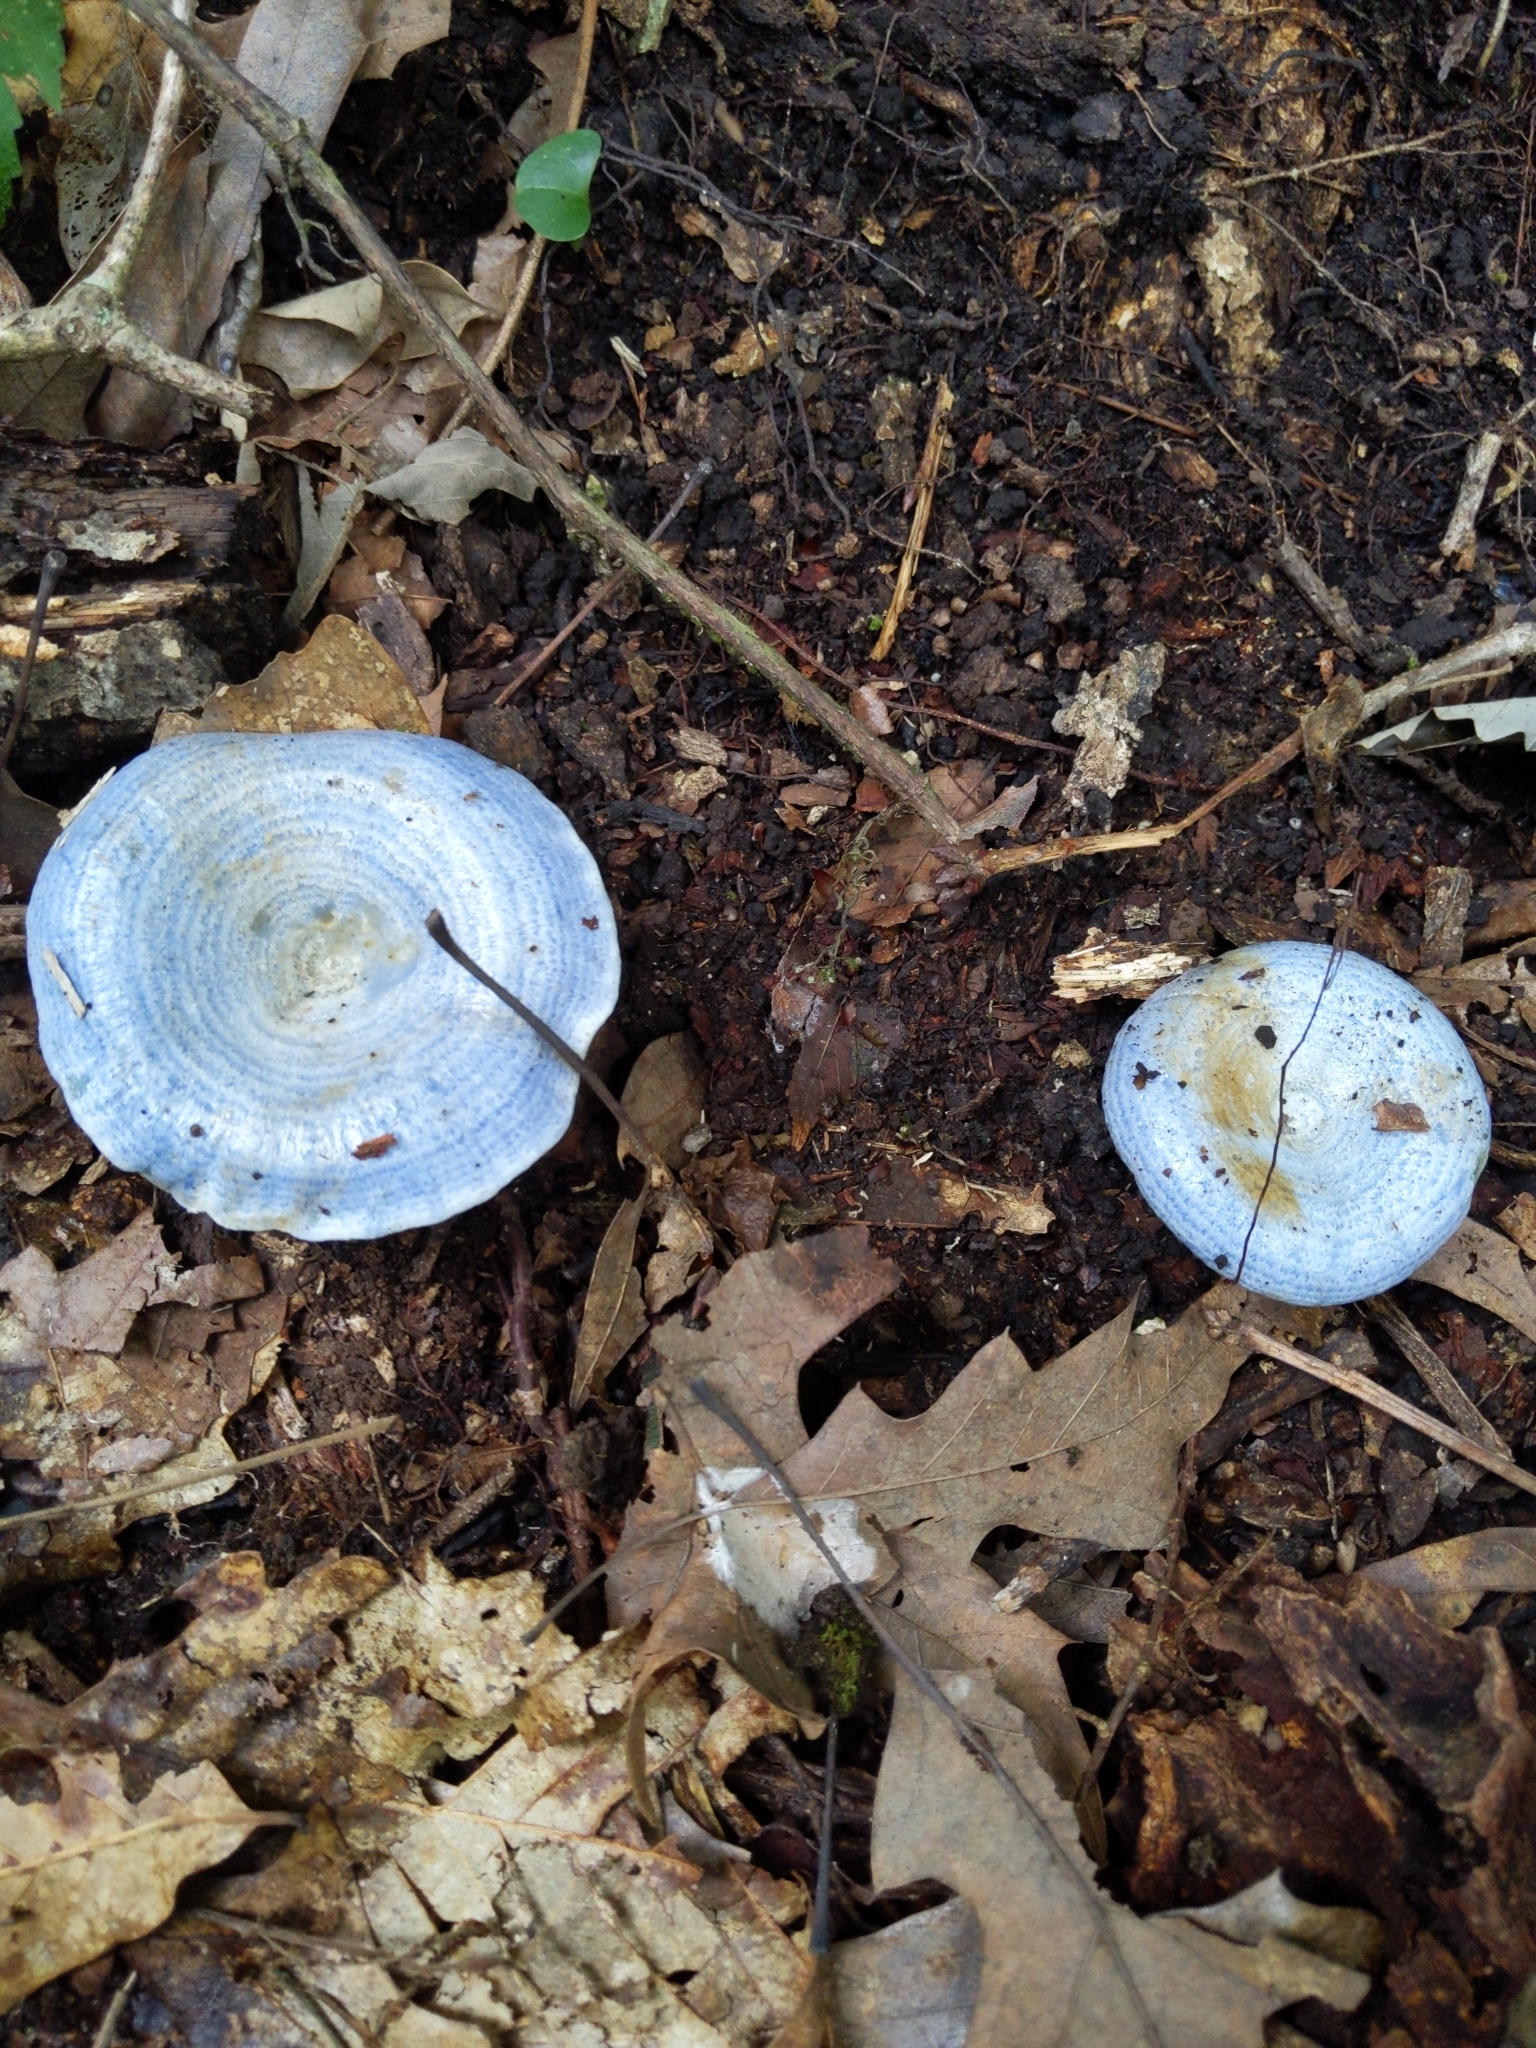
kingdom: Fungi
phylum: Basidiomycota
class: Agaricomycetes
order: Russulales
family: Russulaceae
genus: Lactarius
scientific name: Lactarius indigo
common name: Indigo milk cap
